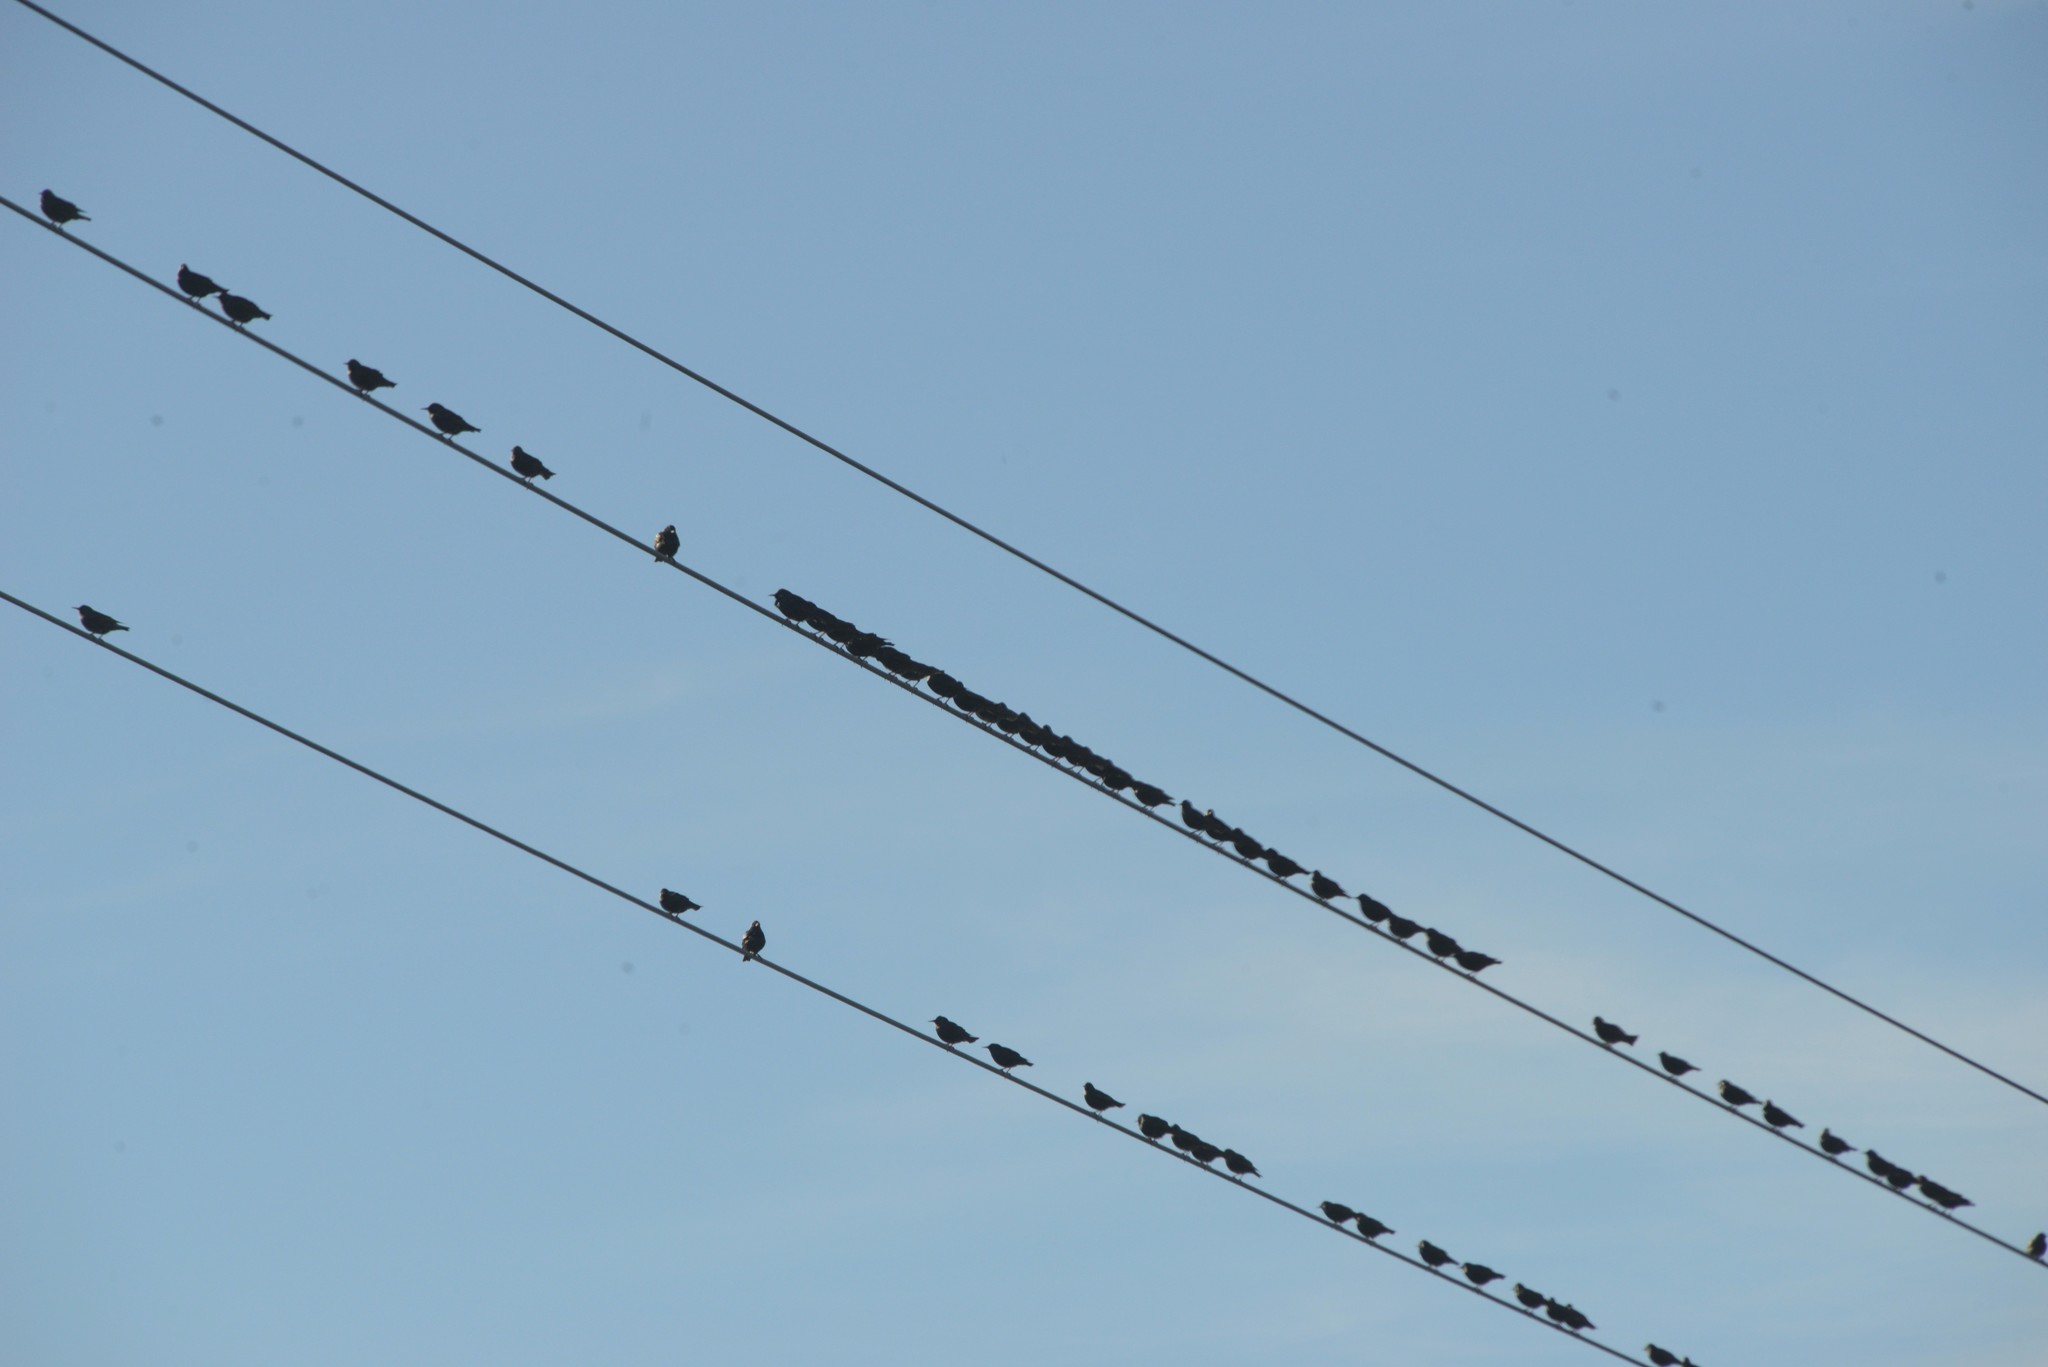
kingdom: Animalia
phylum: Chordata
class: Aves
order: Passeriformes
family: Sturnidae
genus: Sturnus
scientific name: Sturnus vulgaris
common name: Common starling
